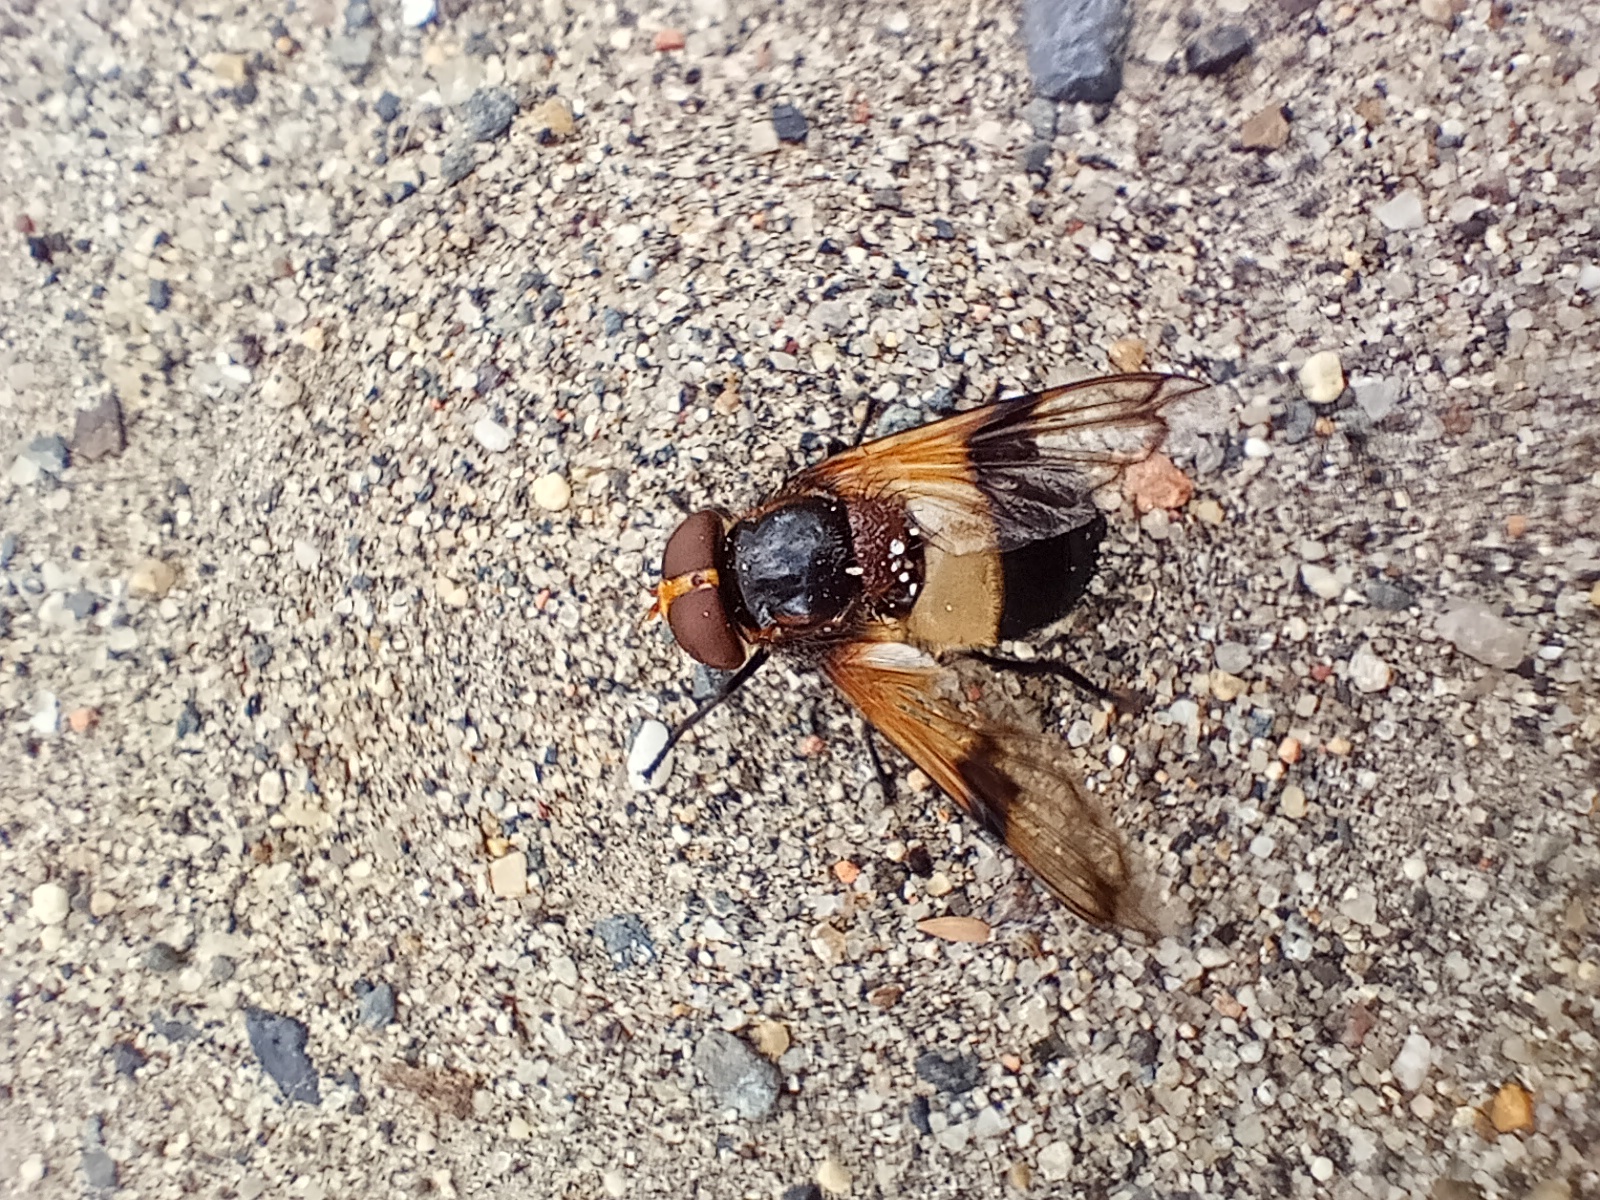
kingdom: Animalia
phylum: Arthropoda
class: Insecta
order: Diptera
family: Syrphidae
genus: Volucella
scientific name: Volucella pellucens
